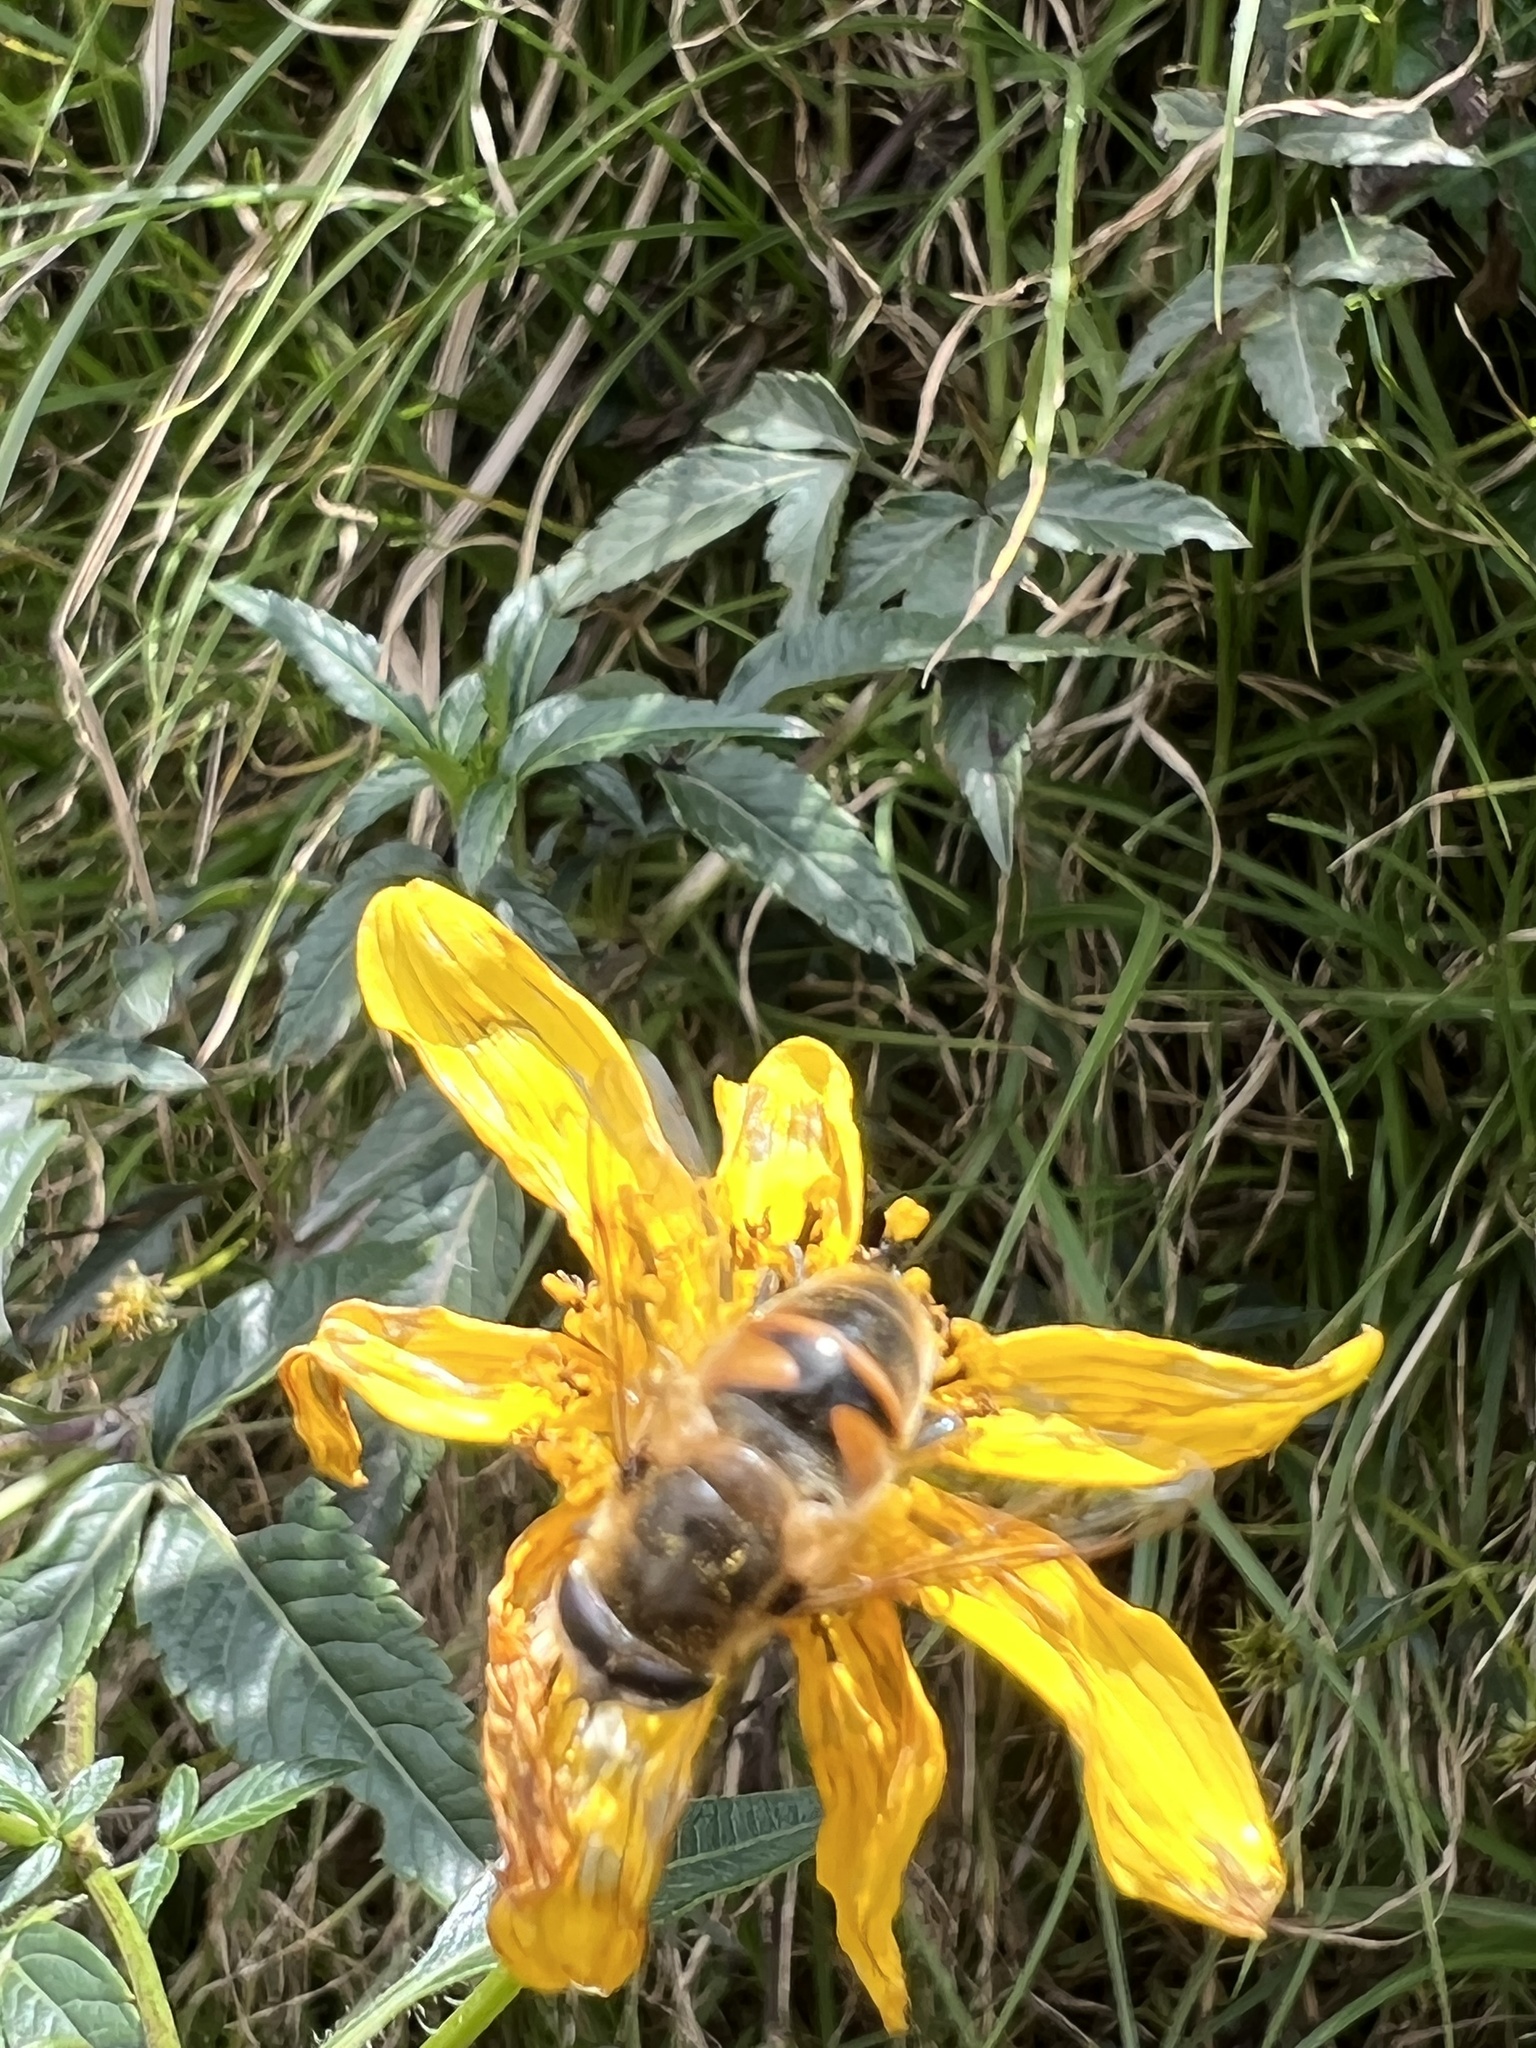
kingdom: Animalia
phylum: Arthropoda
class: Insecta
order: Diptera
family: Syrphidae
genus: Eristalis
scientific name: Eristalis tenax
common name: Drone fly
